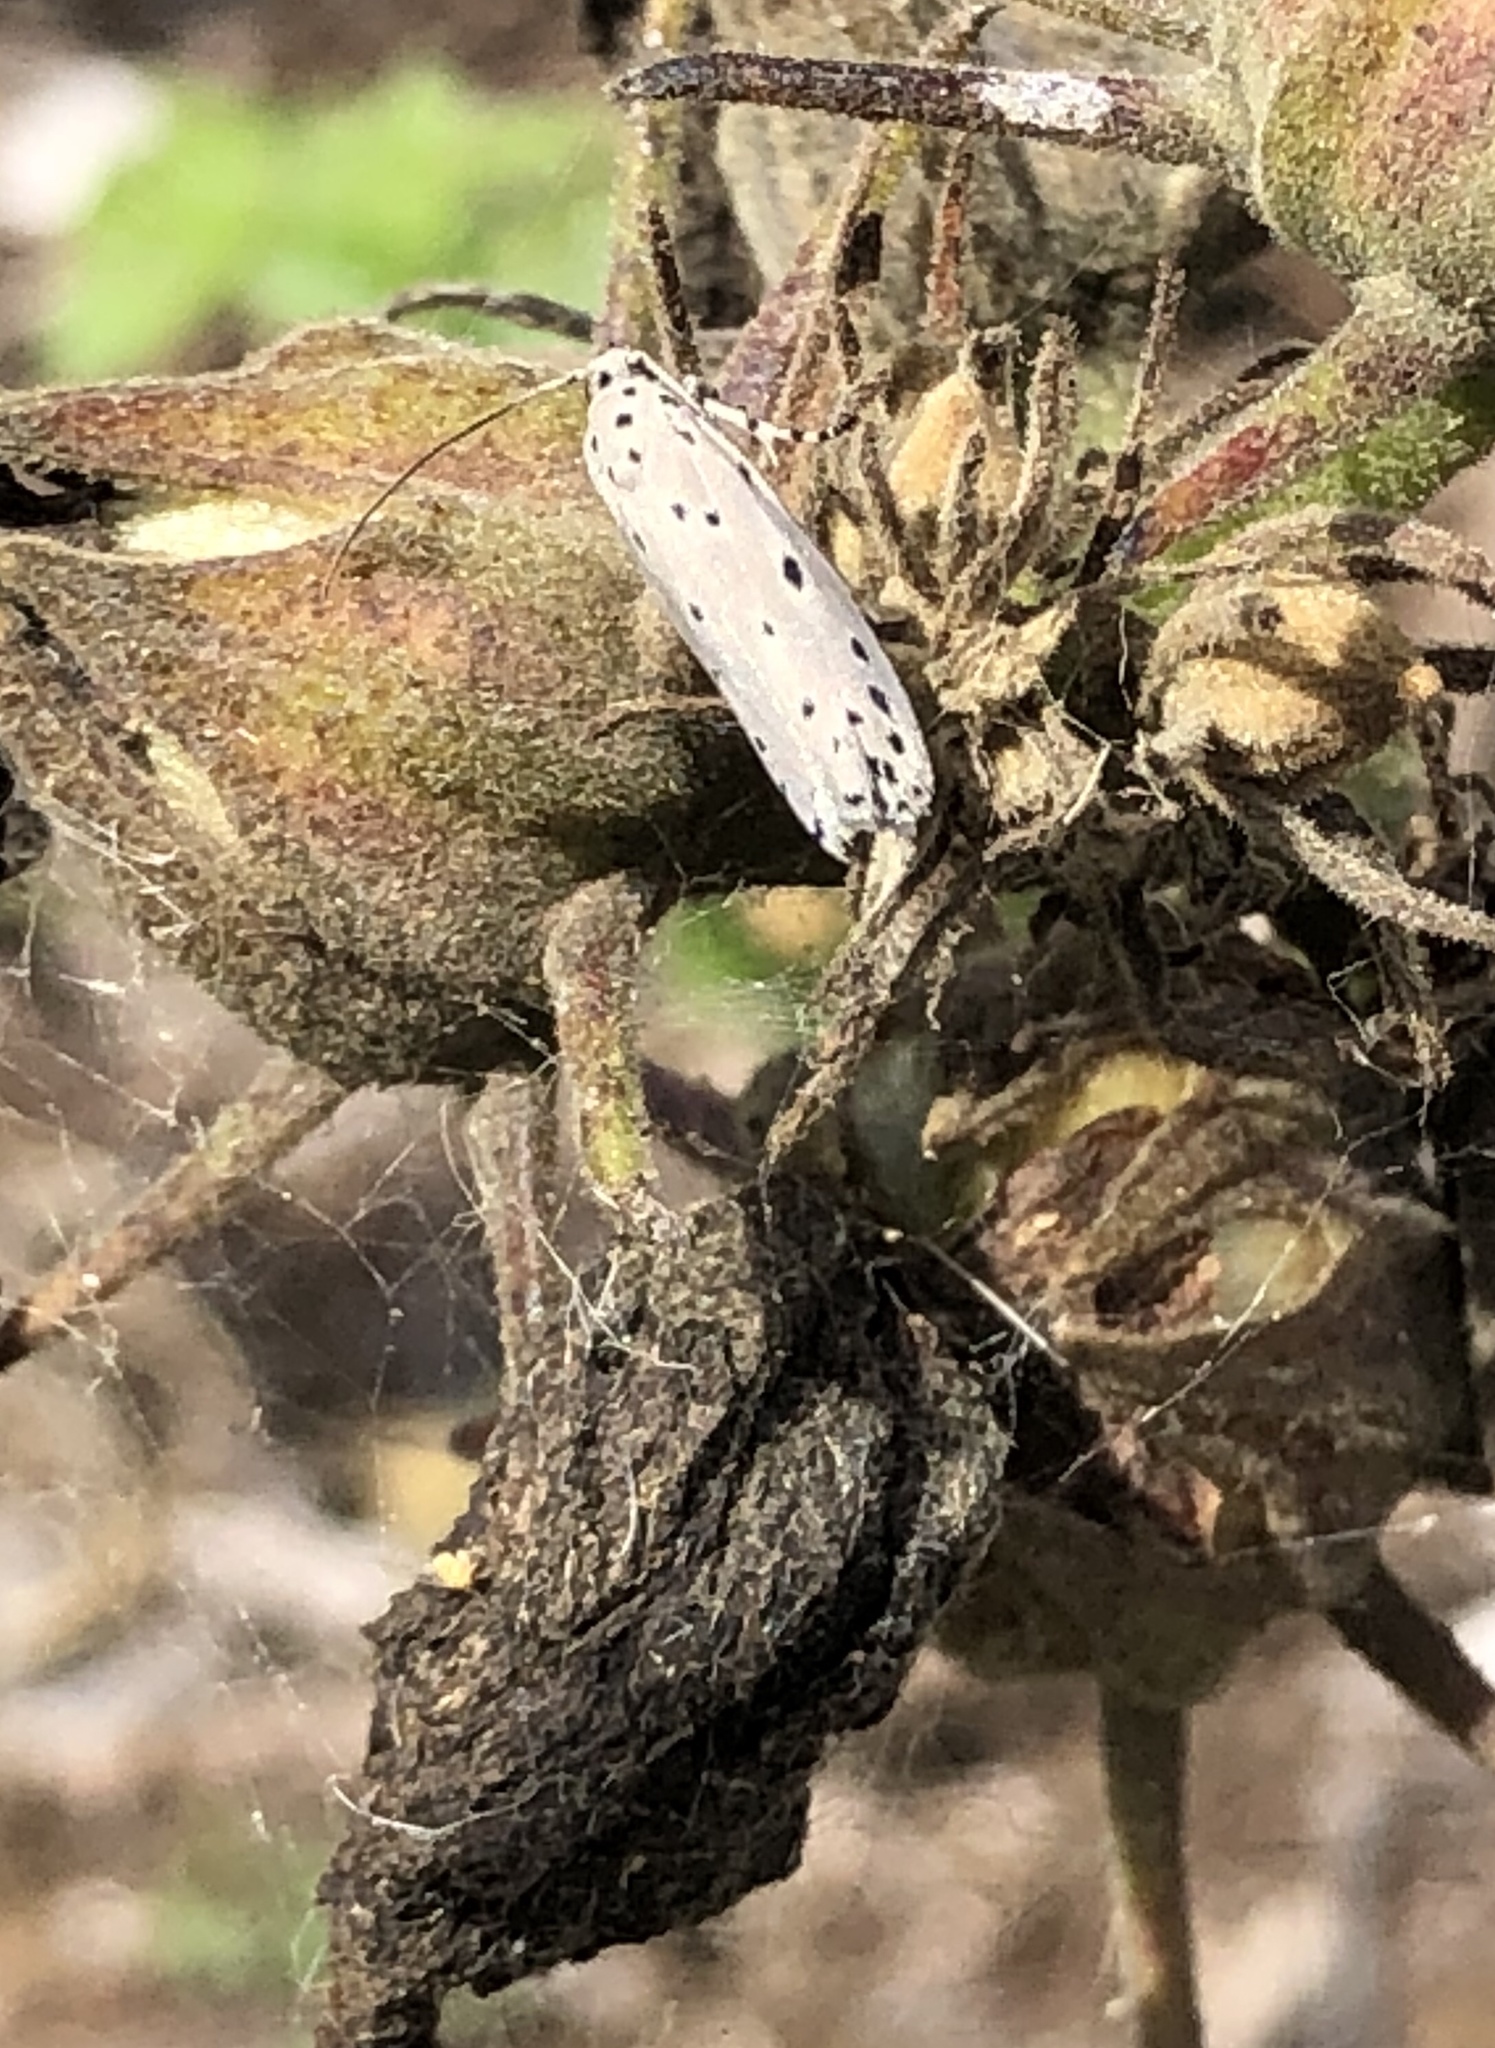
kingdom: Animalia
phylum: Arthropoda
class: Insecta
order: Lepidoptera
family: Ethmiidae
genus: Ethmia
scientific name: Ethmia nigroapicella
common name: Kou leaf worm
